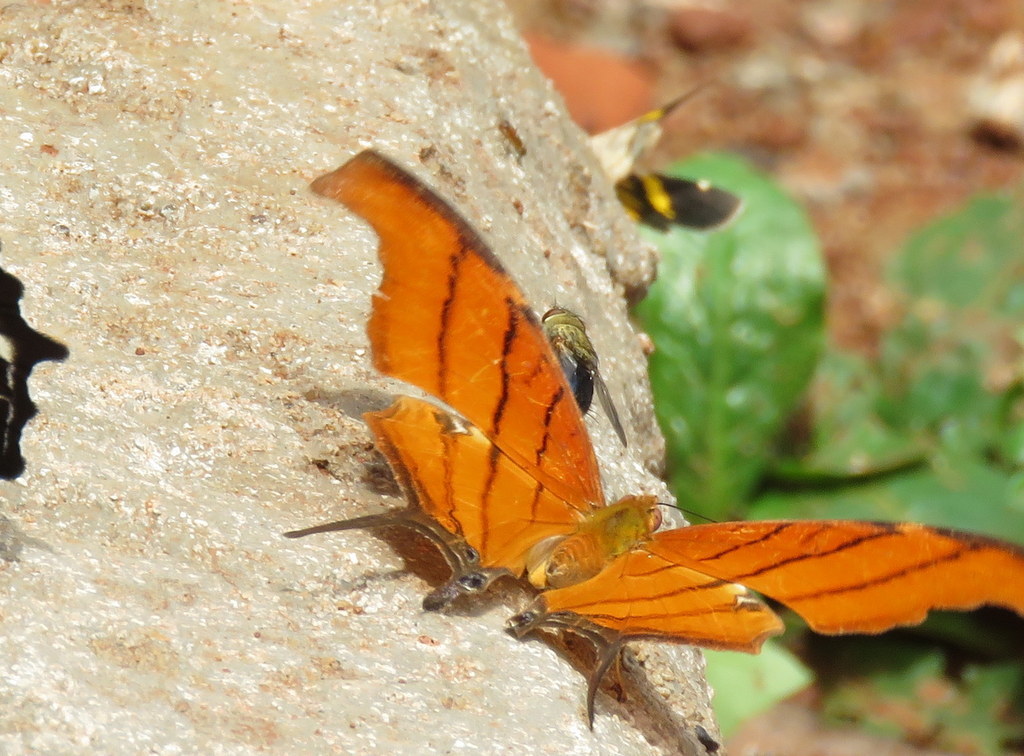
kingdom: Animalia
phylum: Arthropoda
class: Insecta
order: Lepidoptera
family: Nymphalidae
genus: Marpesia
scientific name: Marpesia petreus
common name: Red dagger wing
